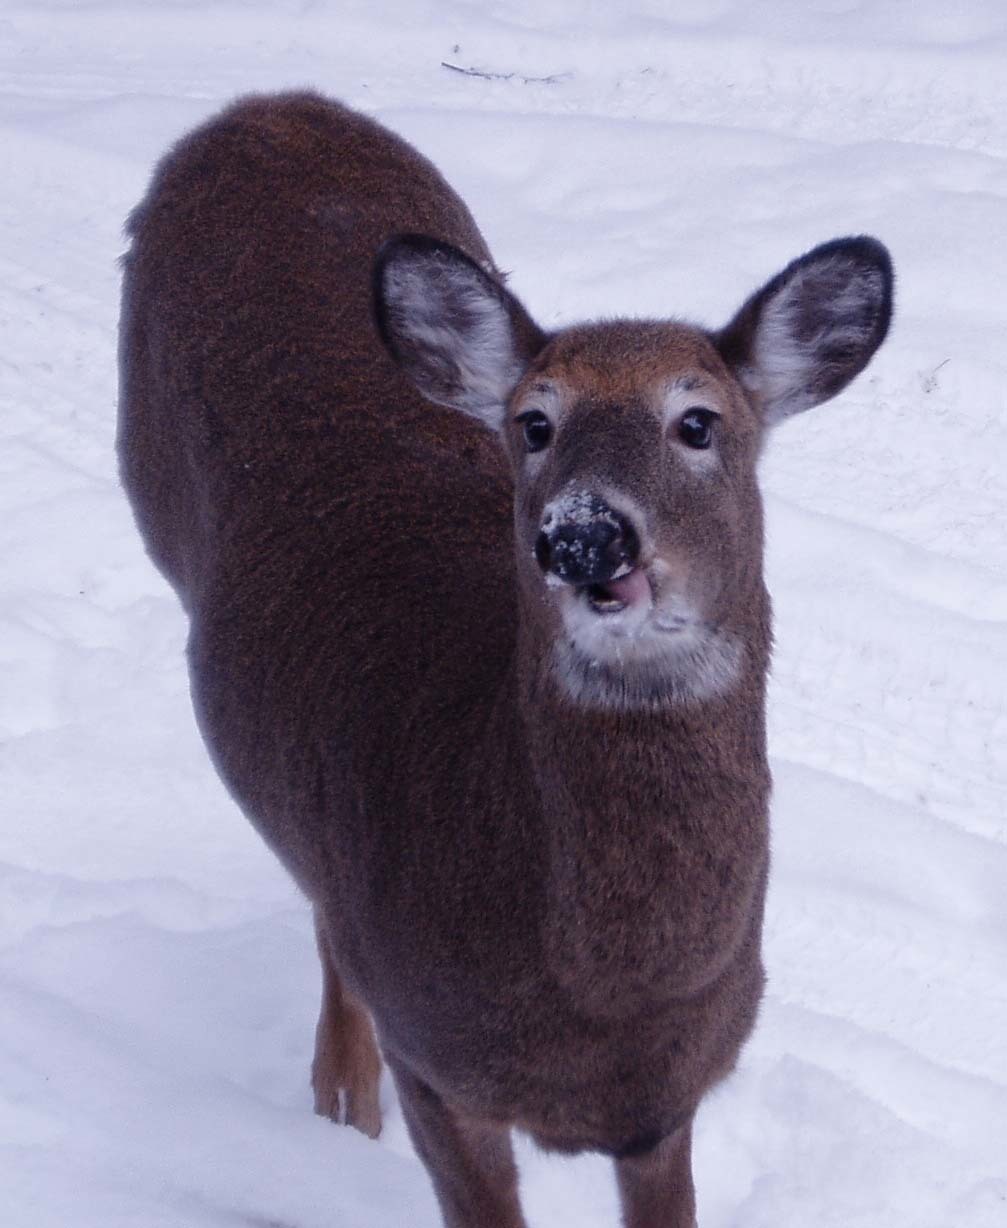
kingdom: Animalia
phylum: Chordata
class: Mammalia
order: Artiodactyla
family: Cervidae
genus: Odocoileus
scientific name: Odocoileus virginianus
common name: White-tailed deer
